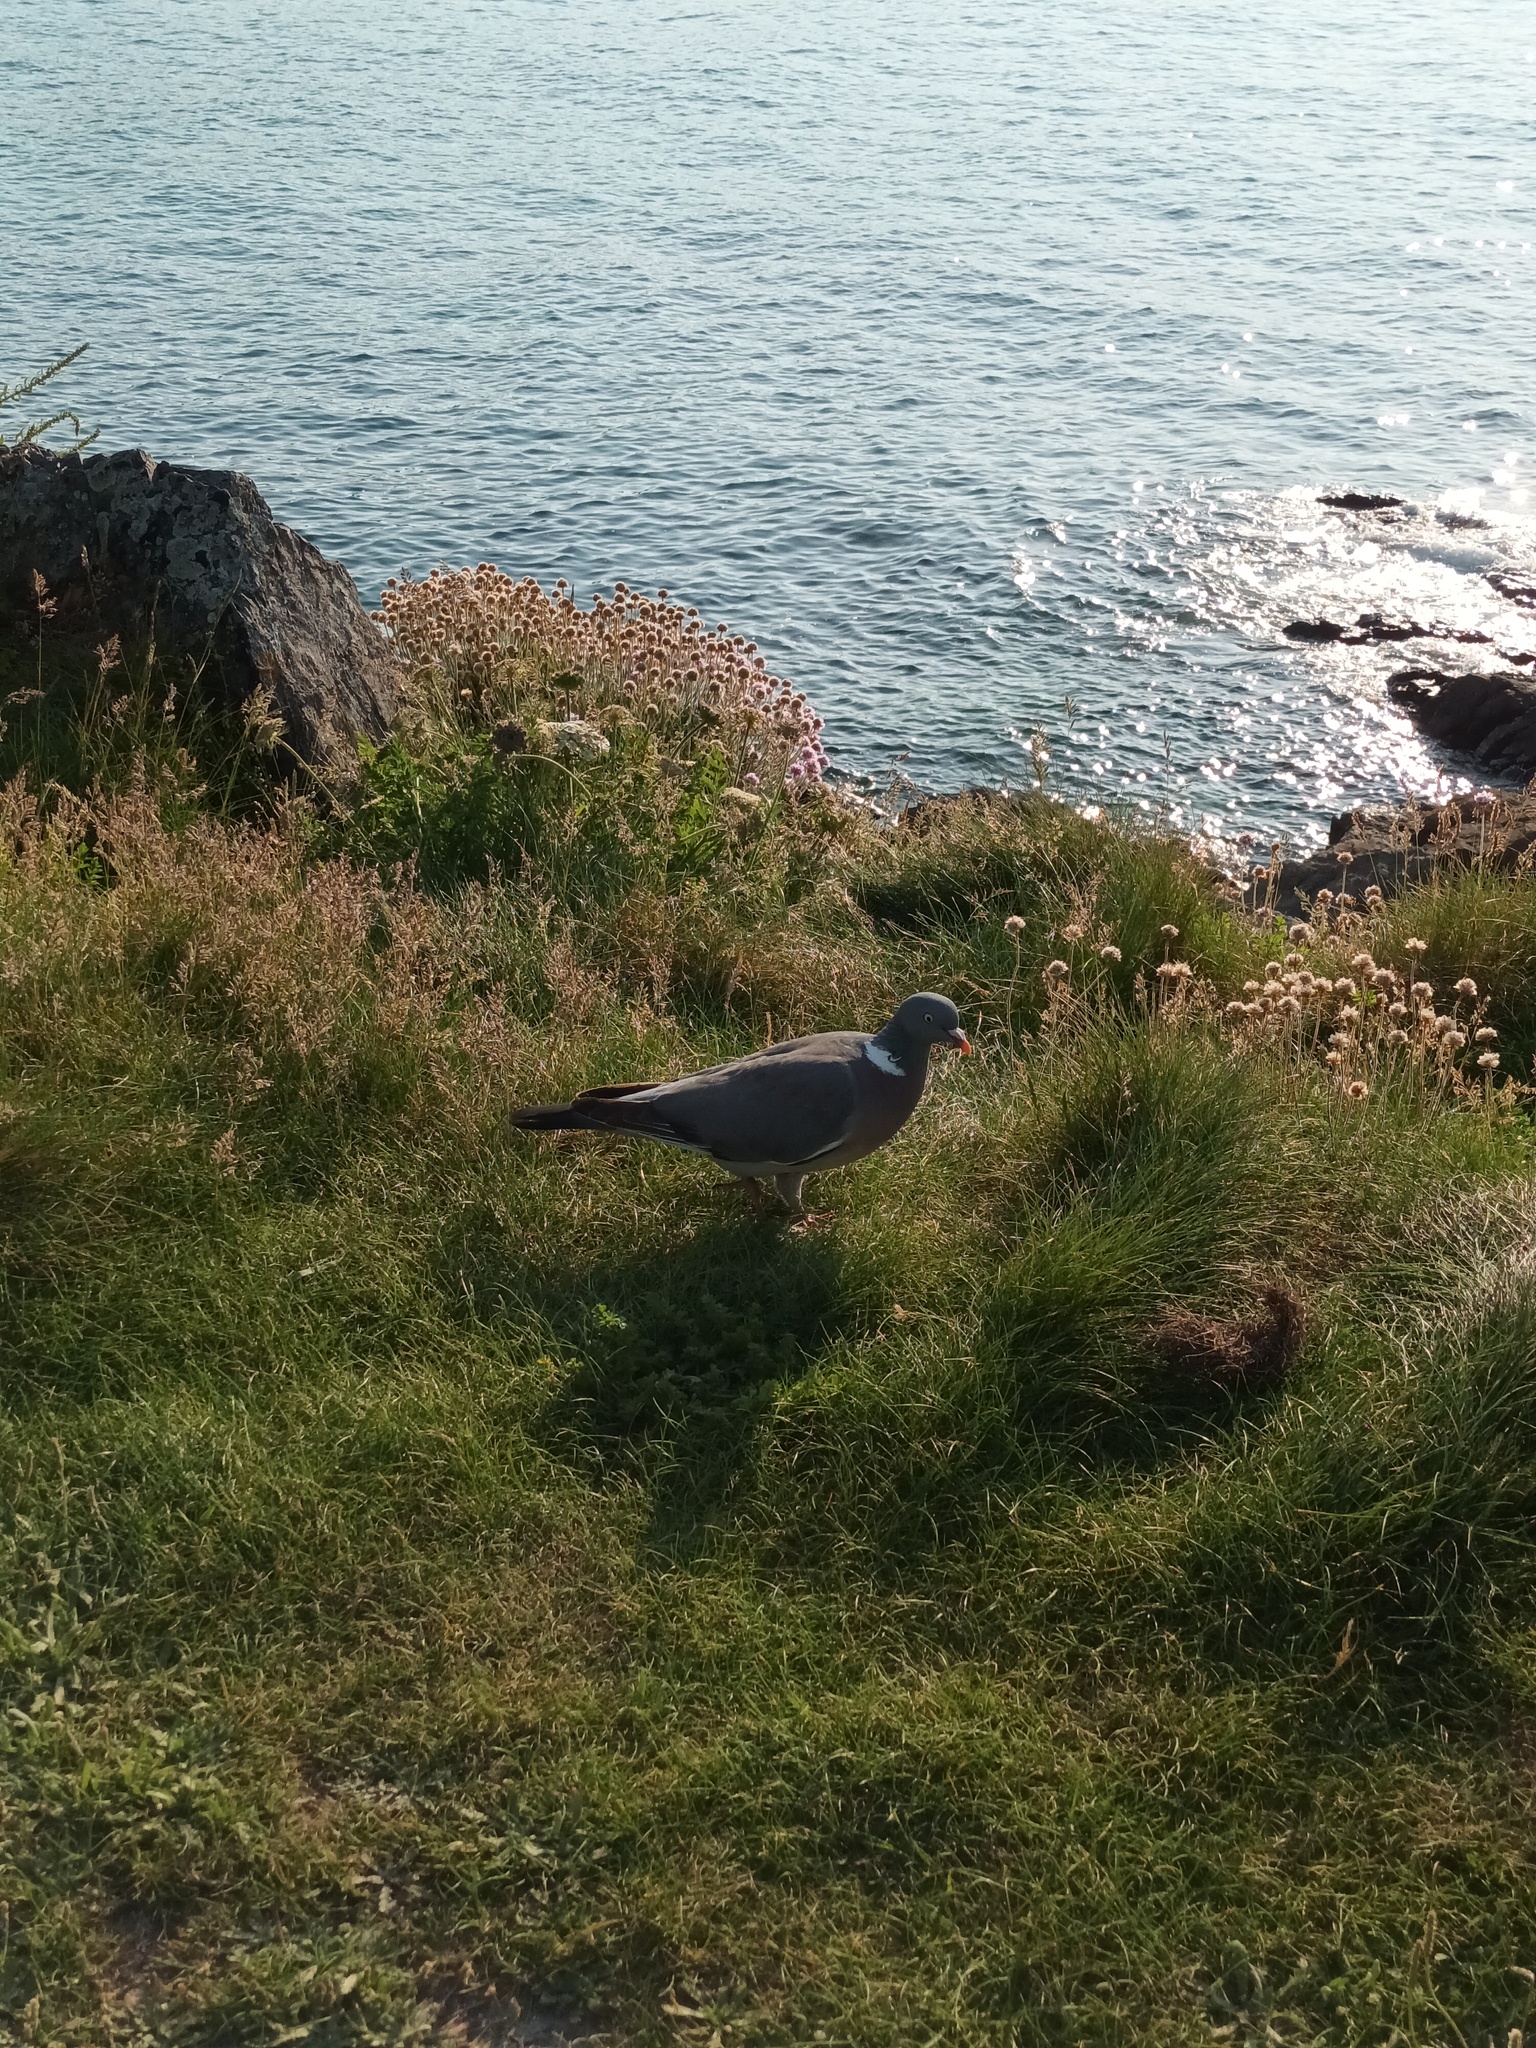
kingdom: Animalia
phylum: Chordata
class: Aves
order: Columbiformes
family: Columbidae
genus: Columba
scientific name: Columba palumbus
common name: Common wood pigeon
